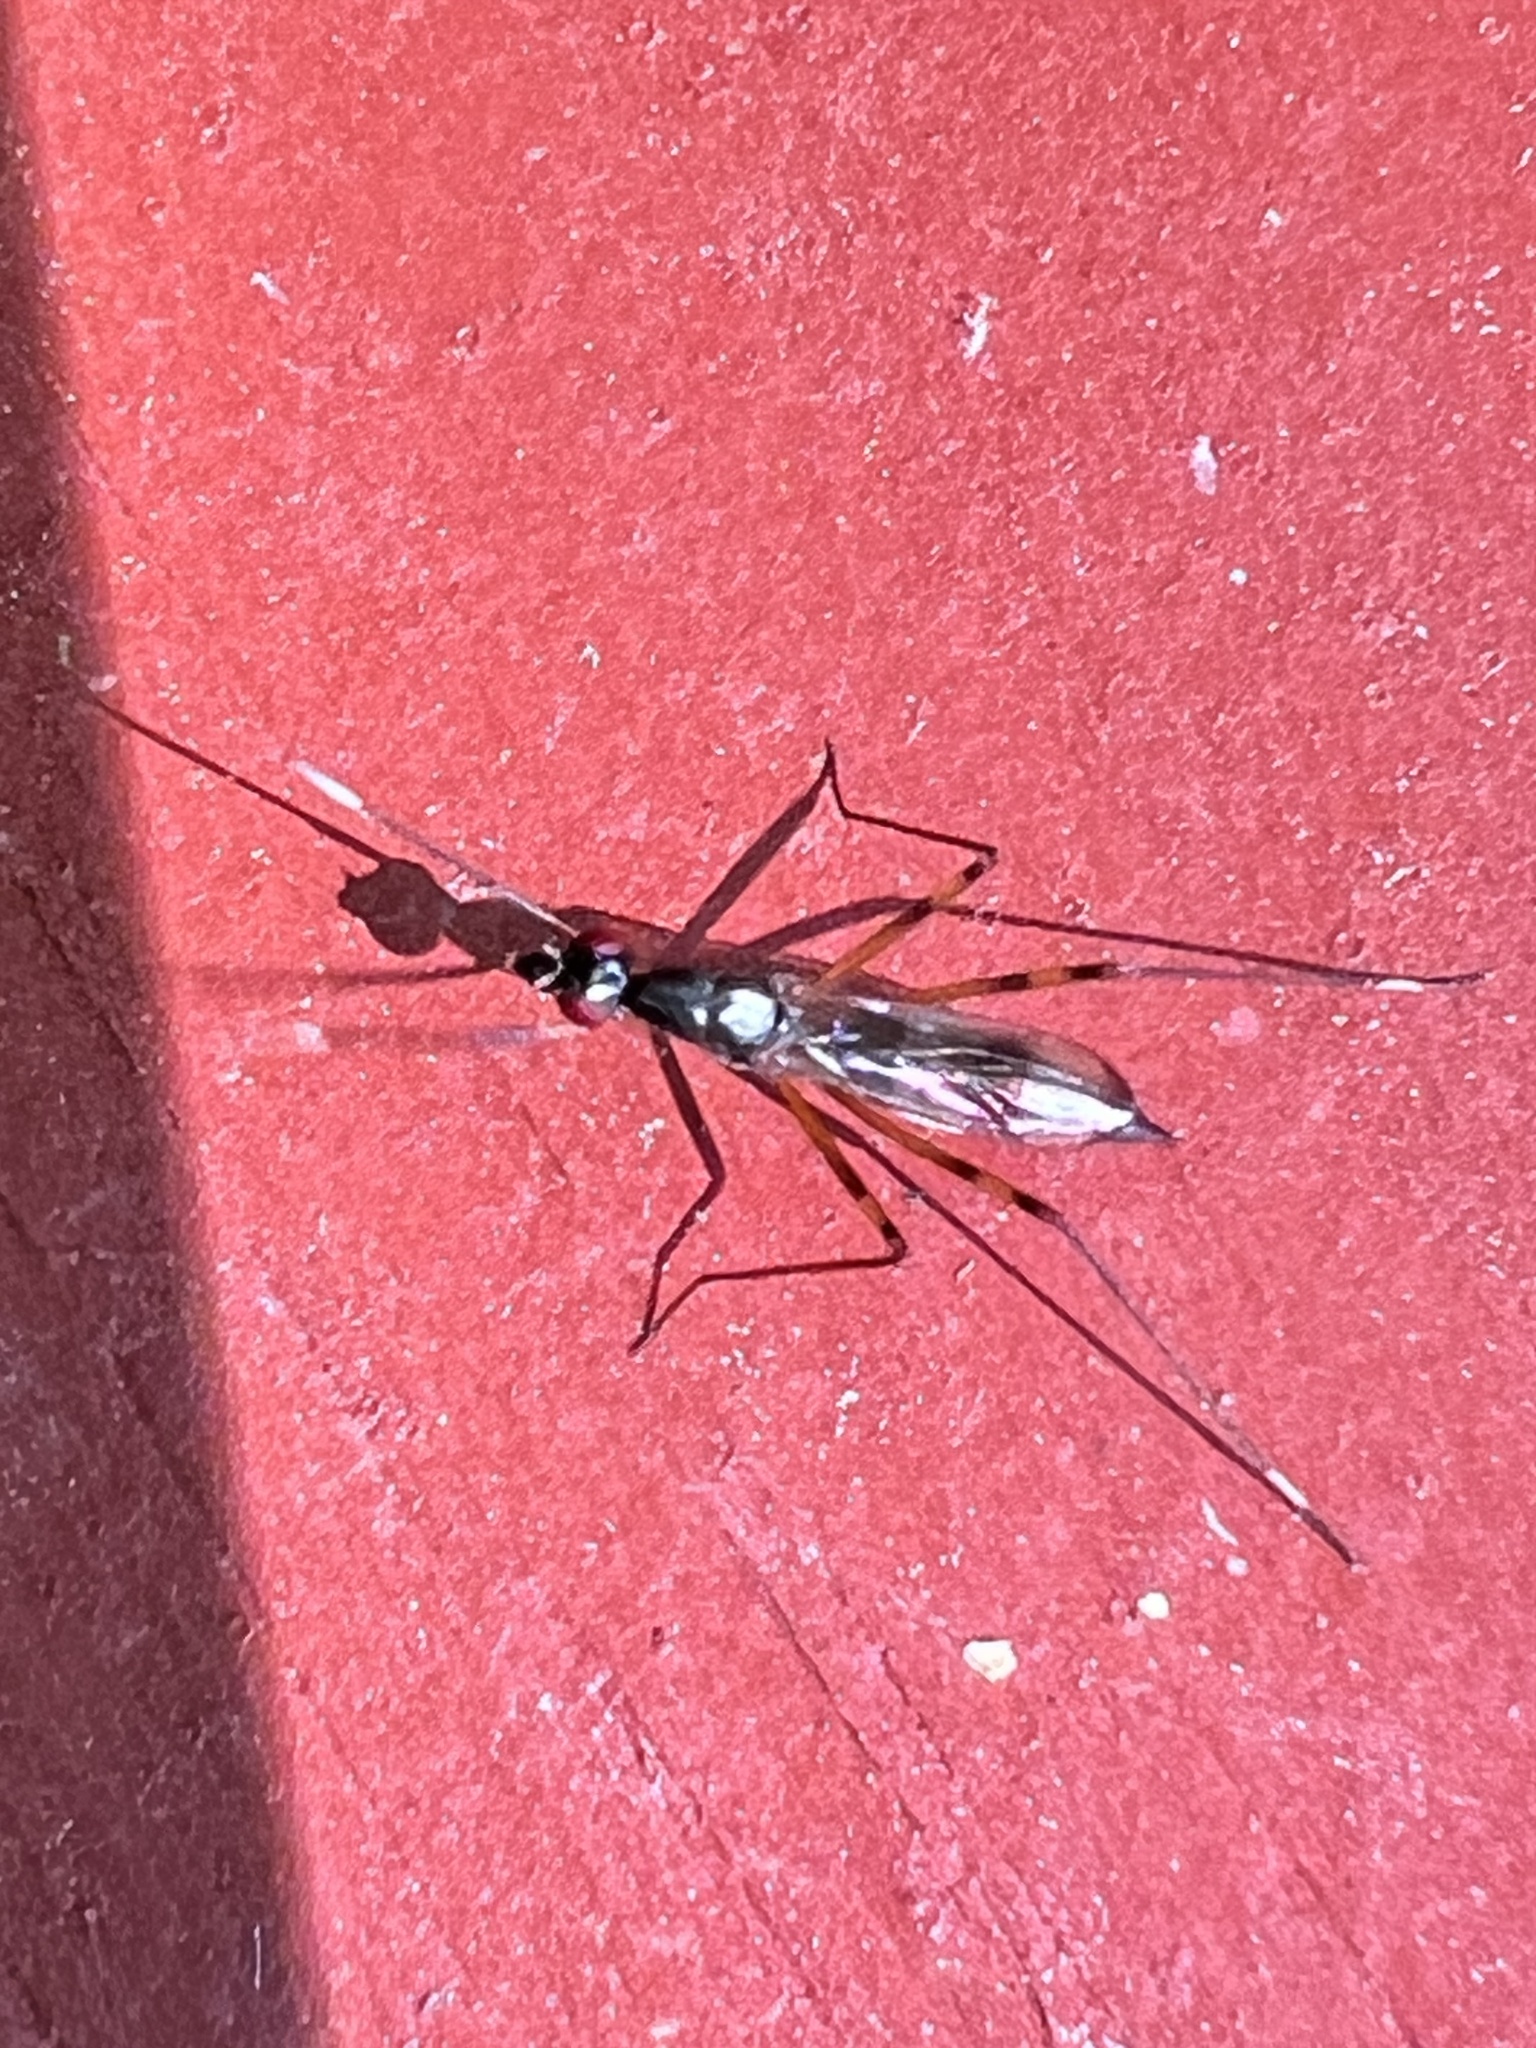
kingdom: Animalia
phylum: Arthropoda
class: Insecta
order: Diptera
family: Micropezidae
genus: Rainieria
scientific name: Rainieria antennaepes
